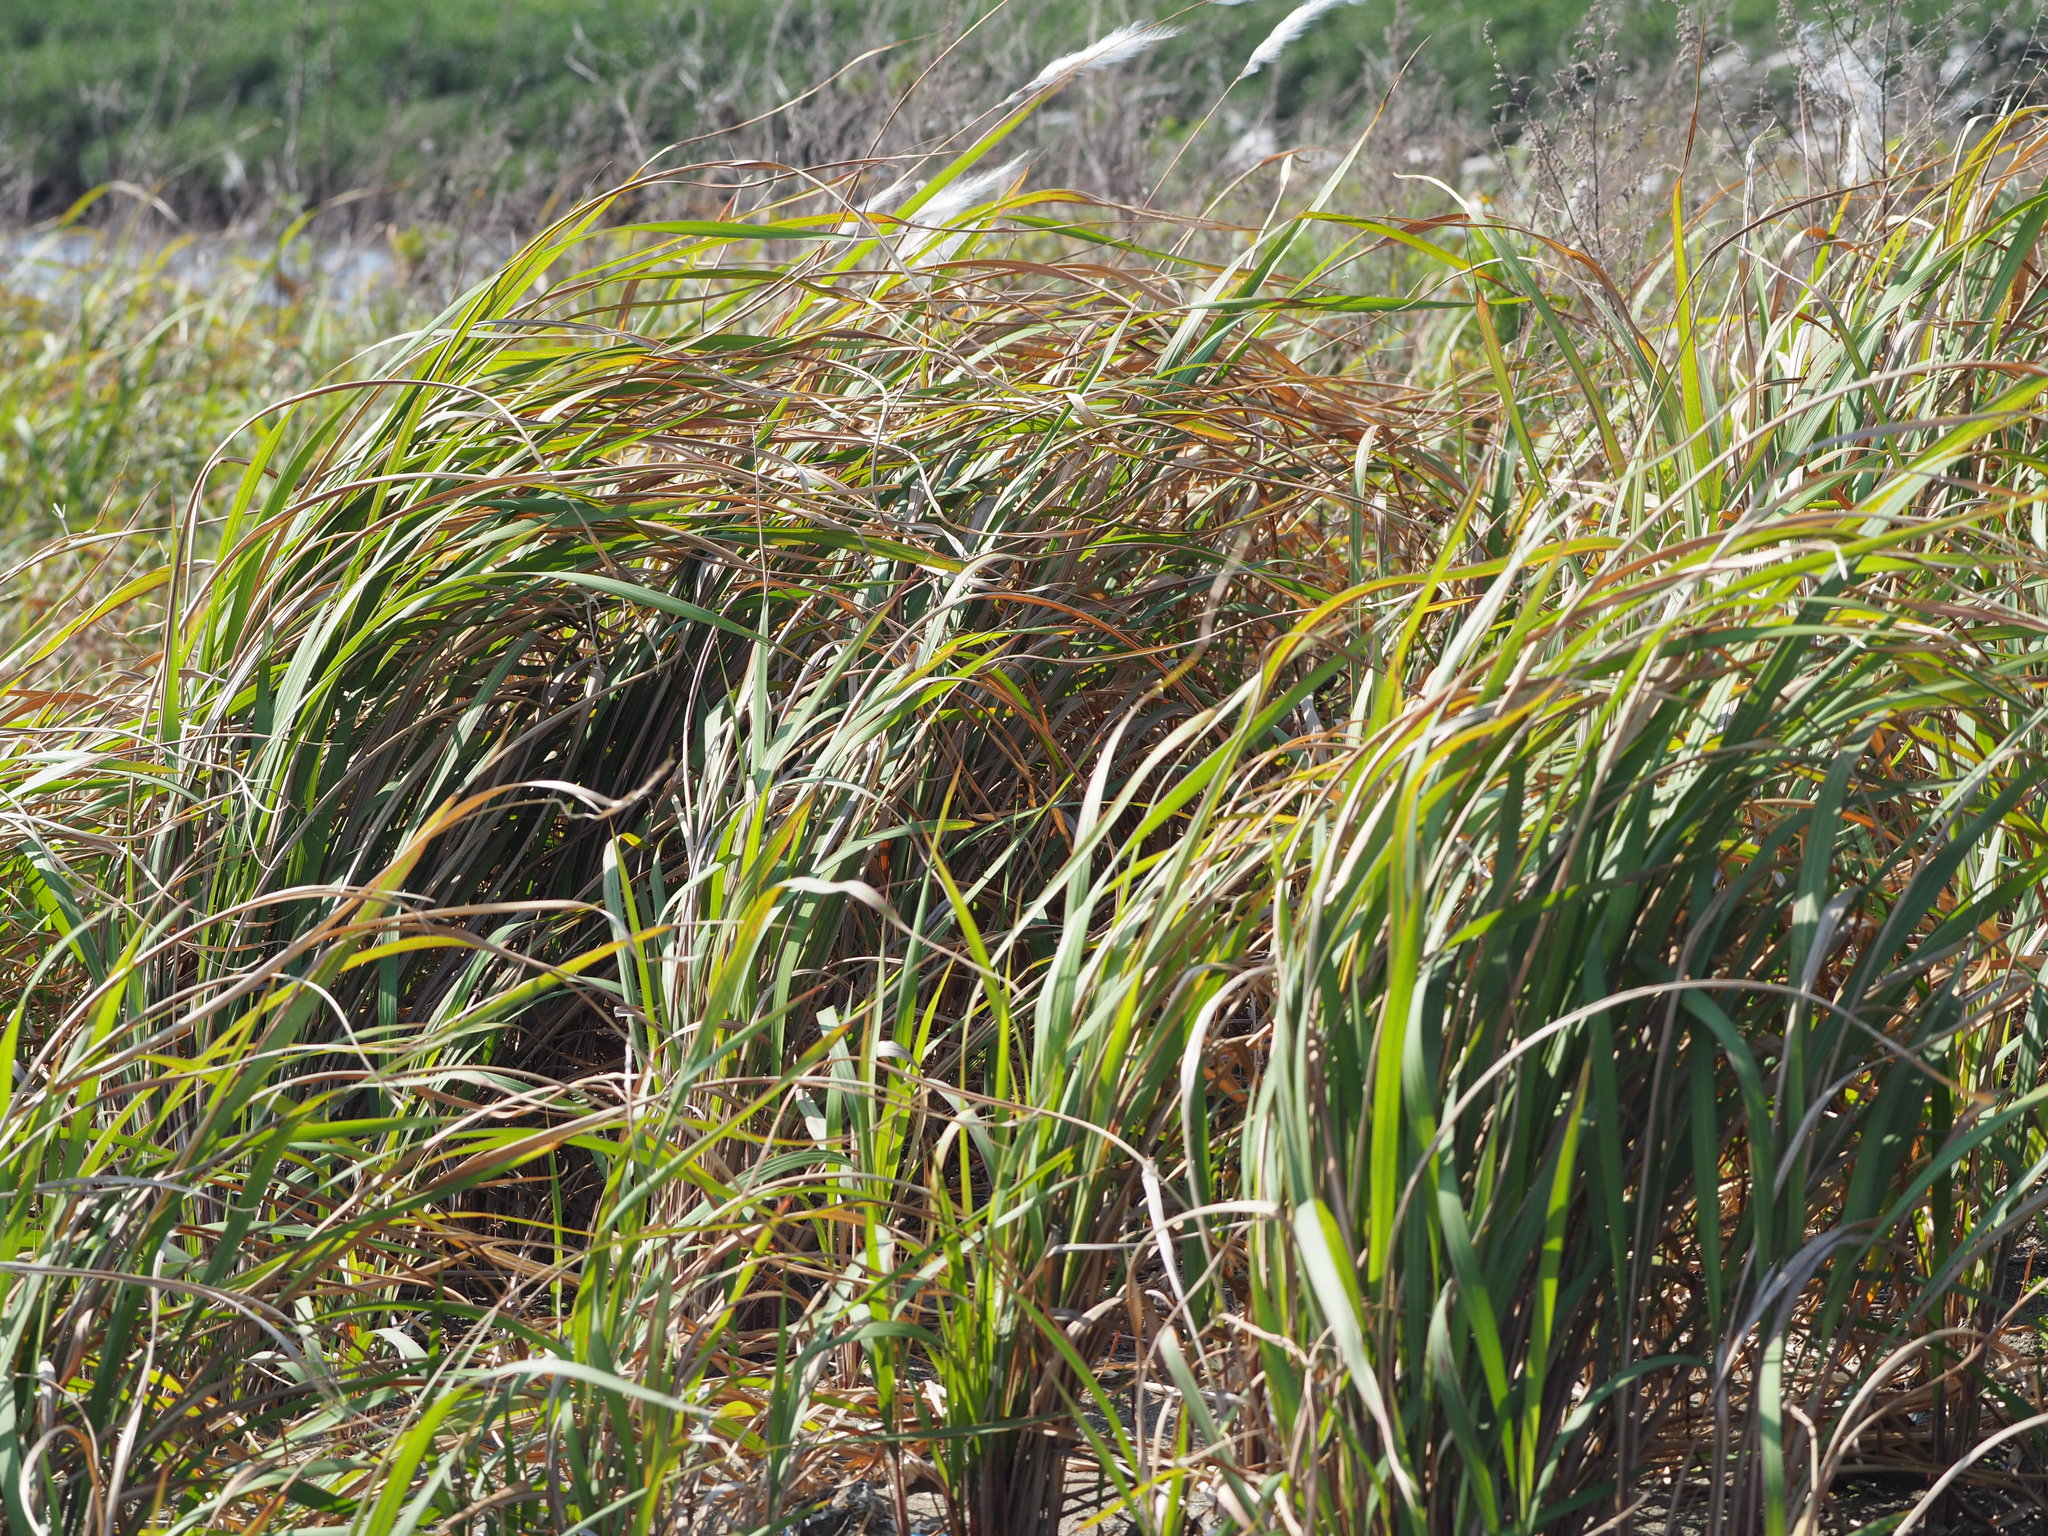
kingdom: Plantae
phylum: Tracheophyta
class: Liliopsida
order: Poales
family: Poaceae
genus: Imperata
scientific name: Imperata cylindrica
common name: Cogongrass
